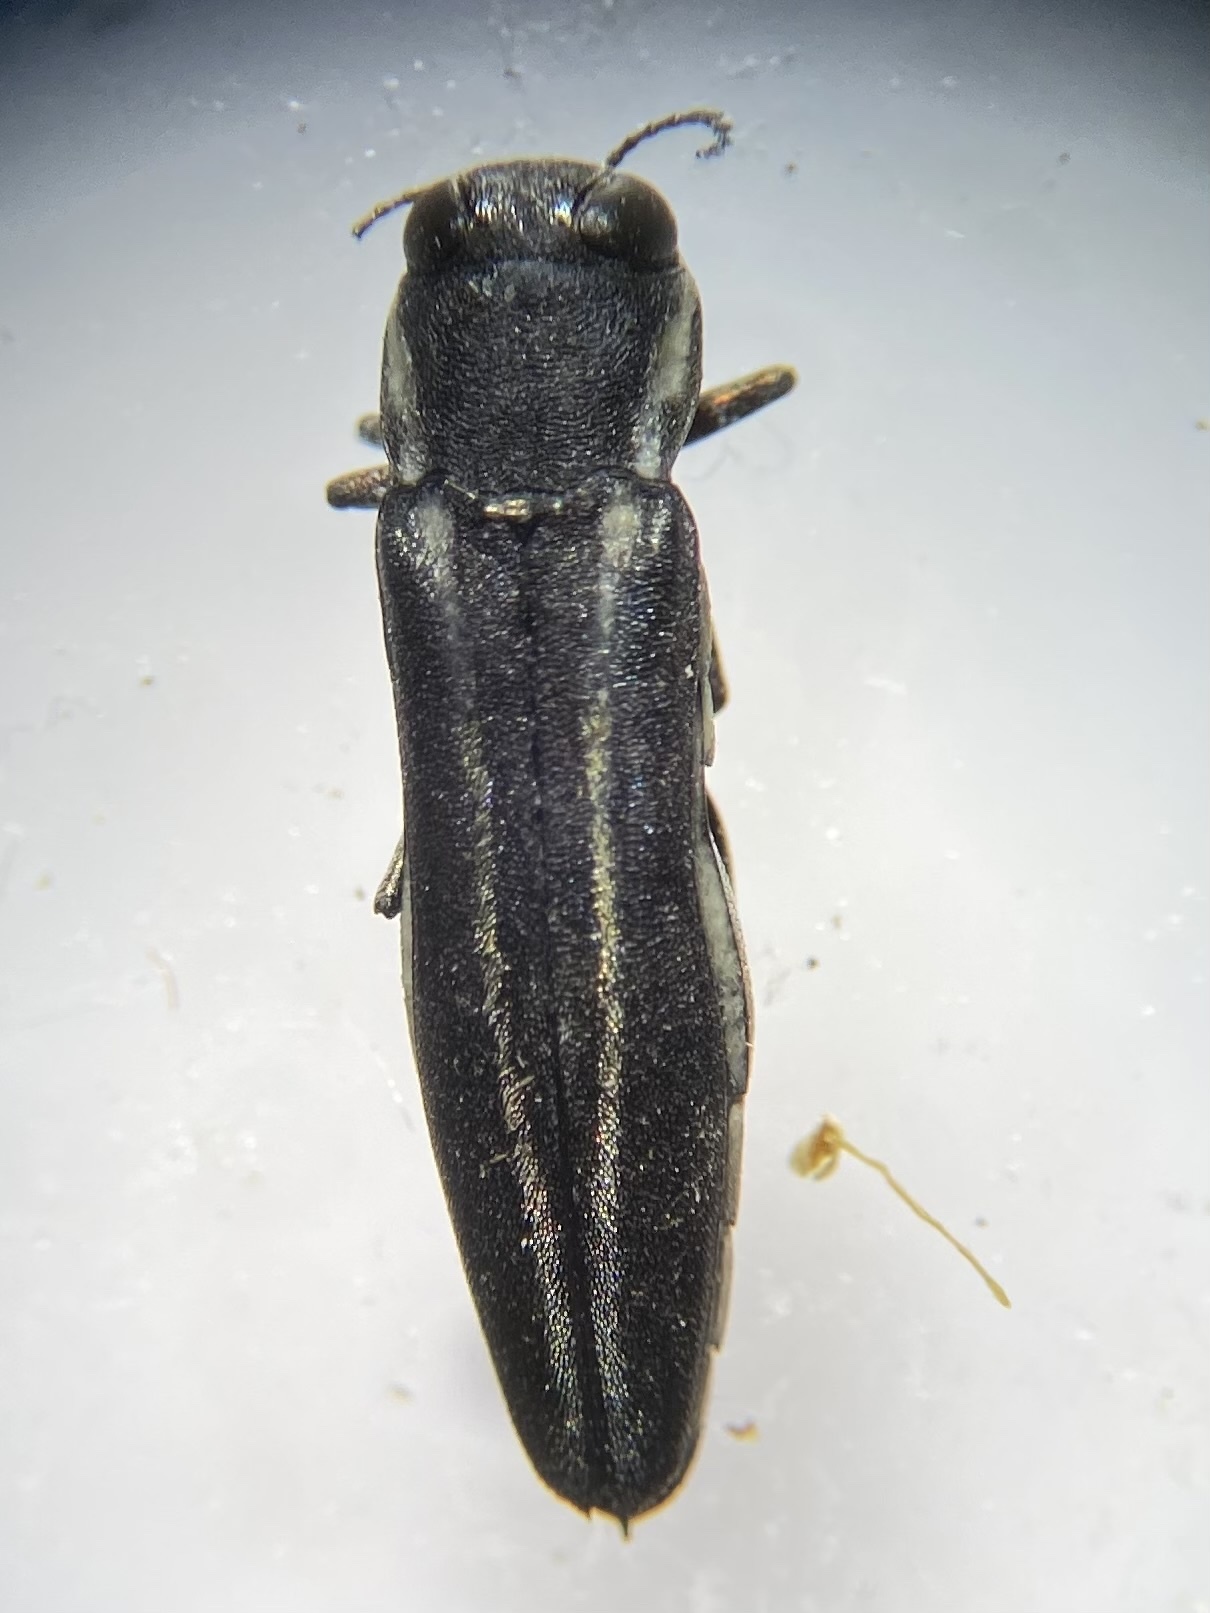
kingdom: Animalia
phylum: Arthropoda
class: Insecta
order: Coleoptera
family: Buprestidae
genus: Agrilus
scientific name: Agrilus bilineatus
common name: Two-lined chestnut borer
